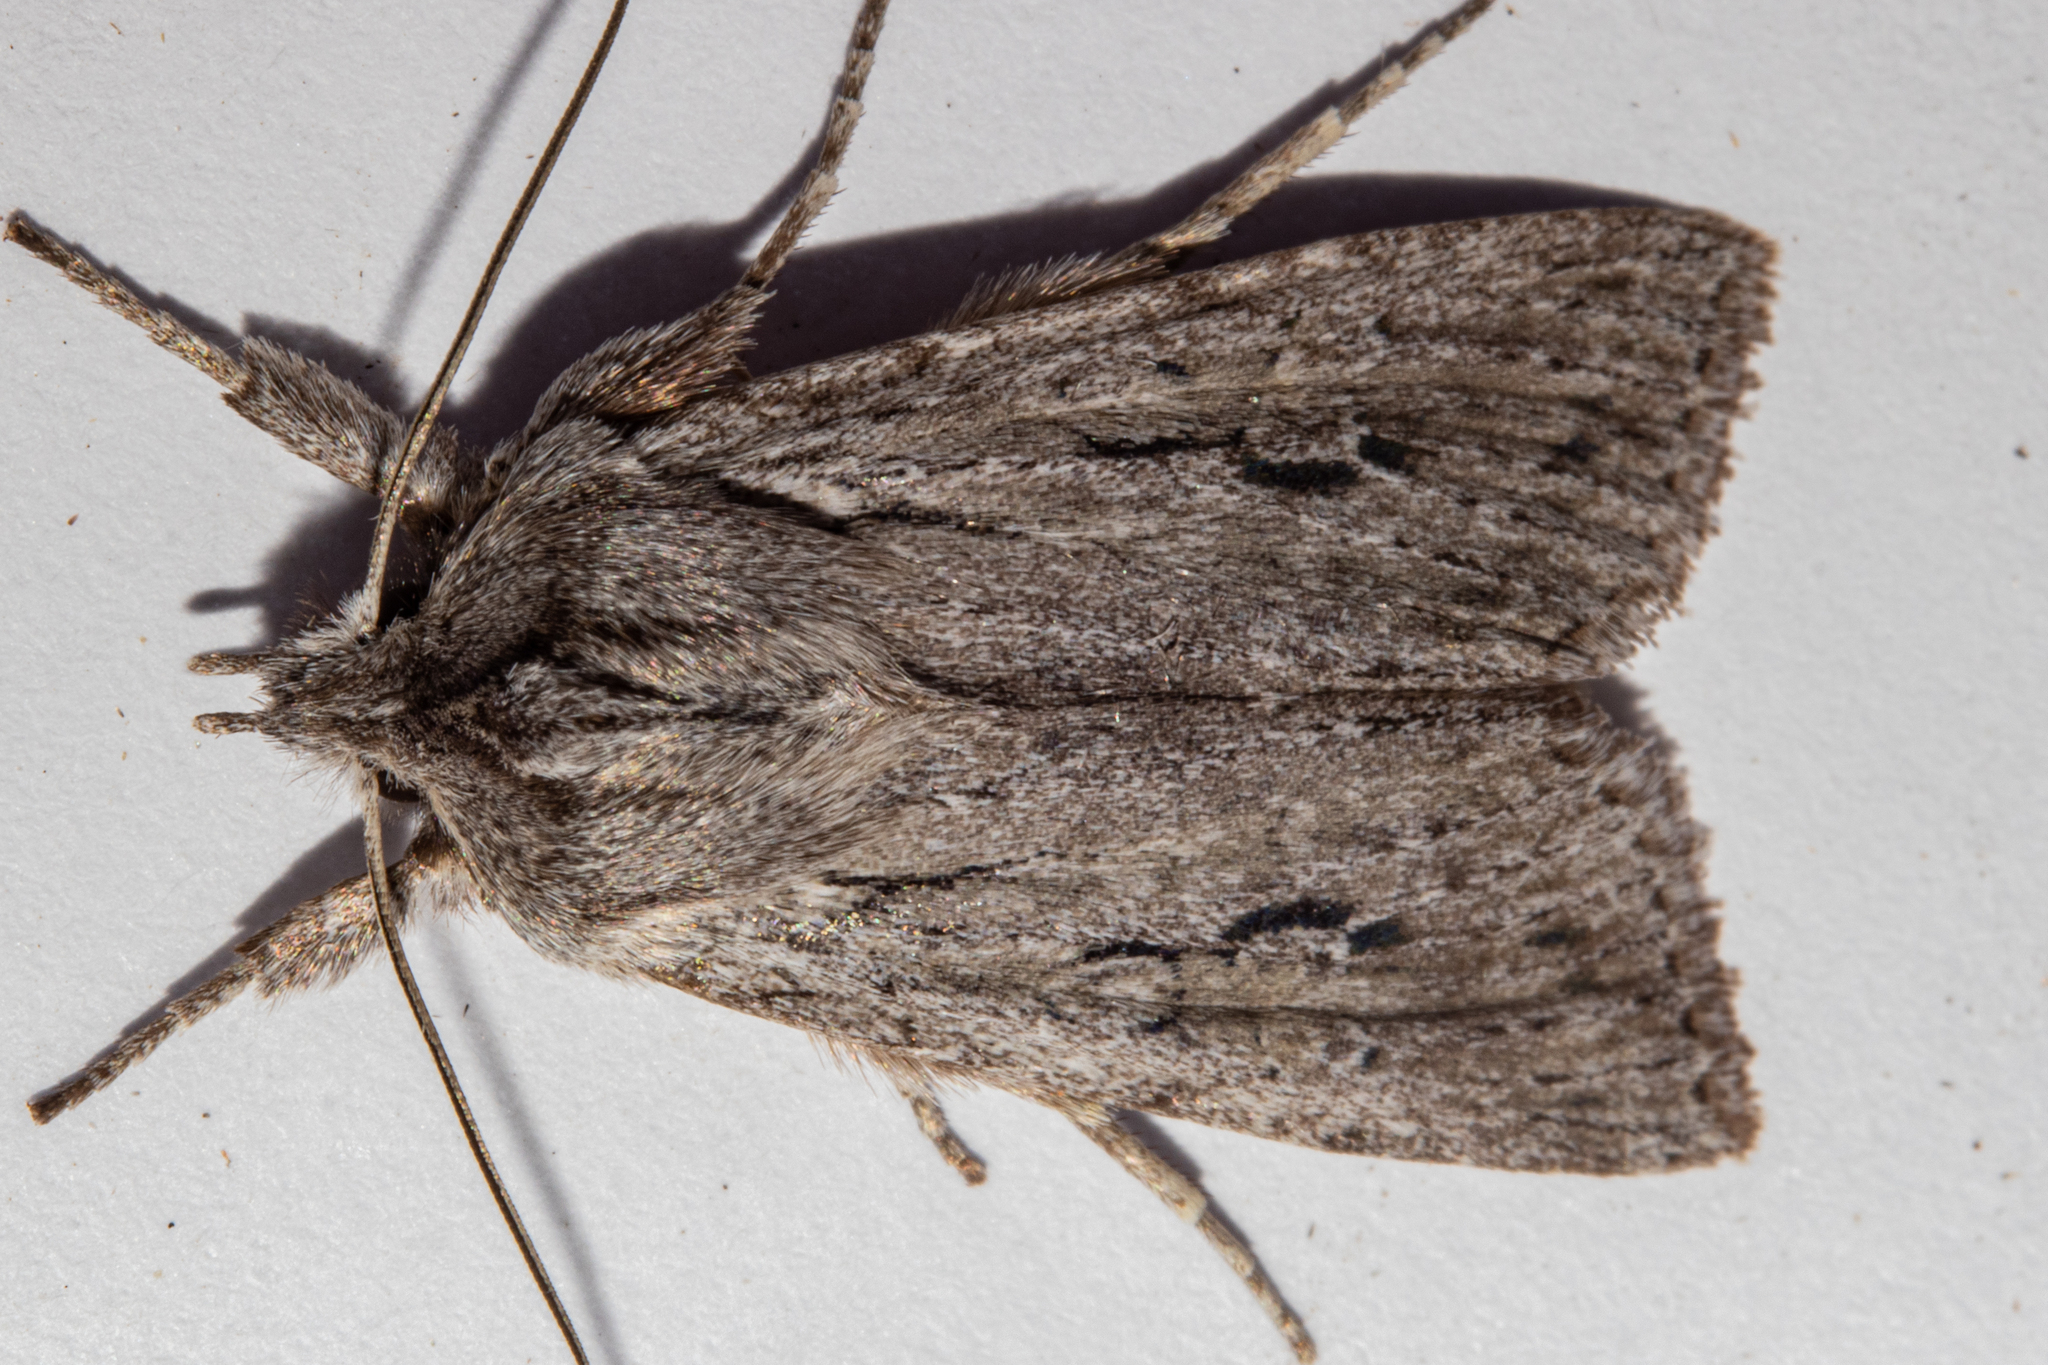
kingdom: Animalia
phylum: Arthropoda
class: Insecta
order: Lepidoptera
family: Noctuidae
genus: Physetica
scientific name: Physetica sequens
